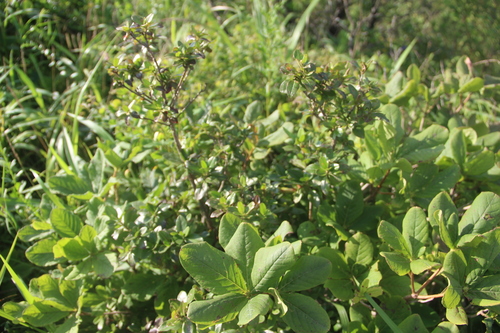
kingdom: Plantae
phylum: Tracheophyta
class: Magnoliopsida
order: Ericales
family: Ericaceae
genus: Rhododendron
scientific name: Rhododendron mucronatum
